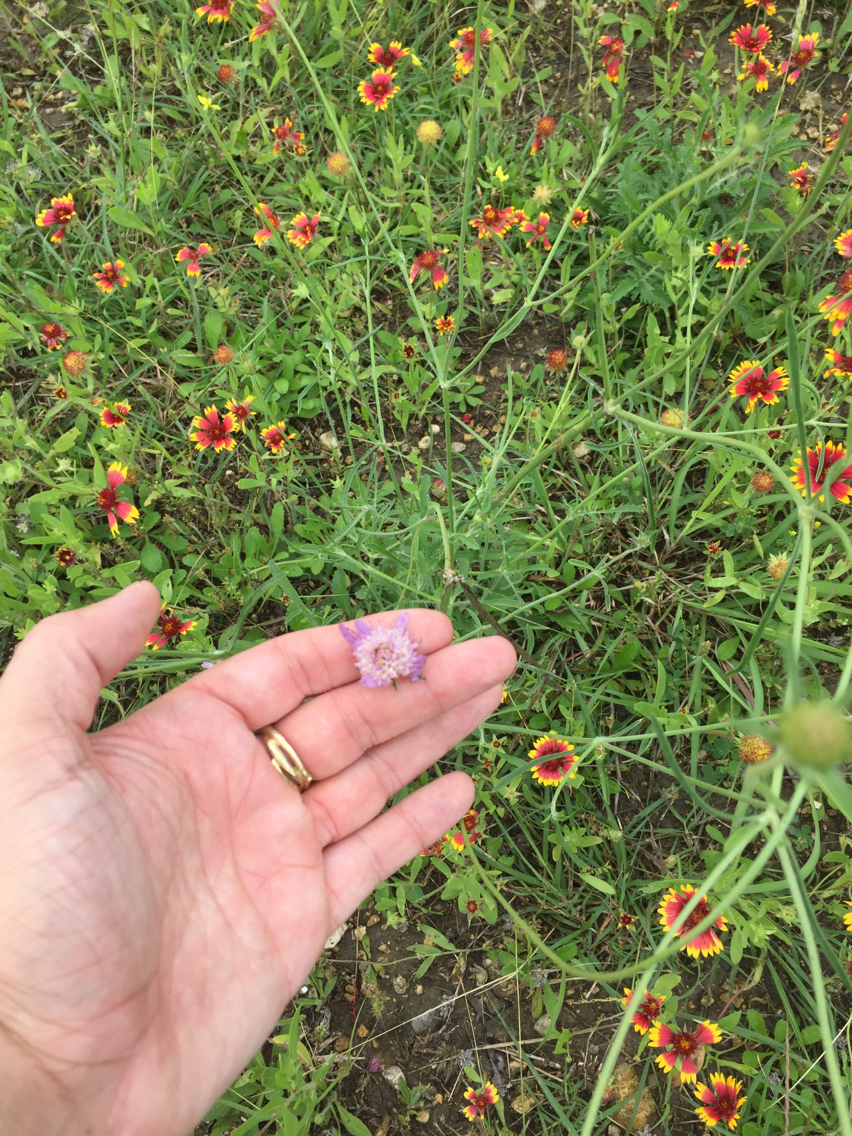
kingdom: Plantae
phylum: Tracheophyta
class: Magnoliopsida
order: Dipsacales
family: Caprifoliaceae
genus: Sixalix
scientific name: Sixalix atropurpurea
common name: Sweet scabious
